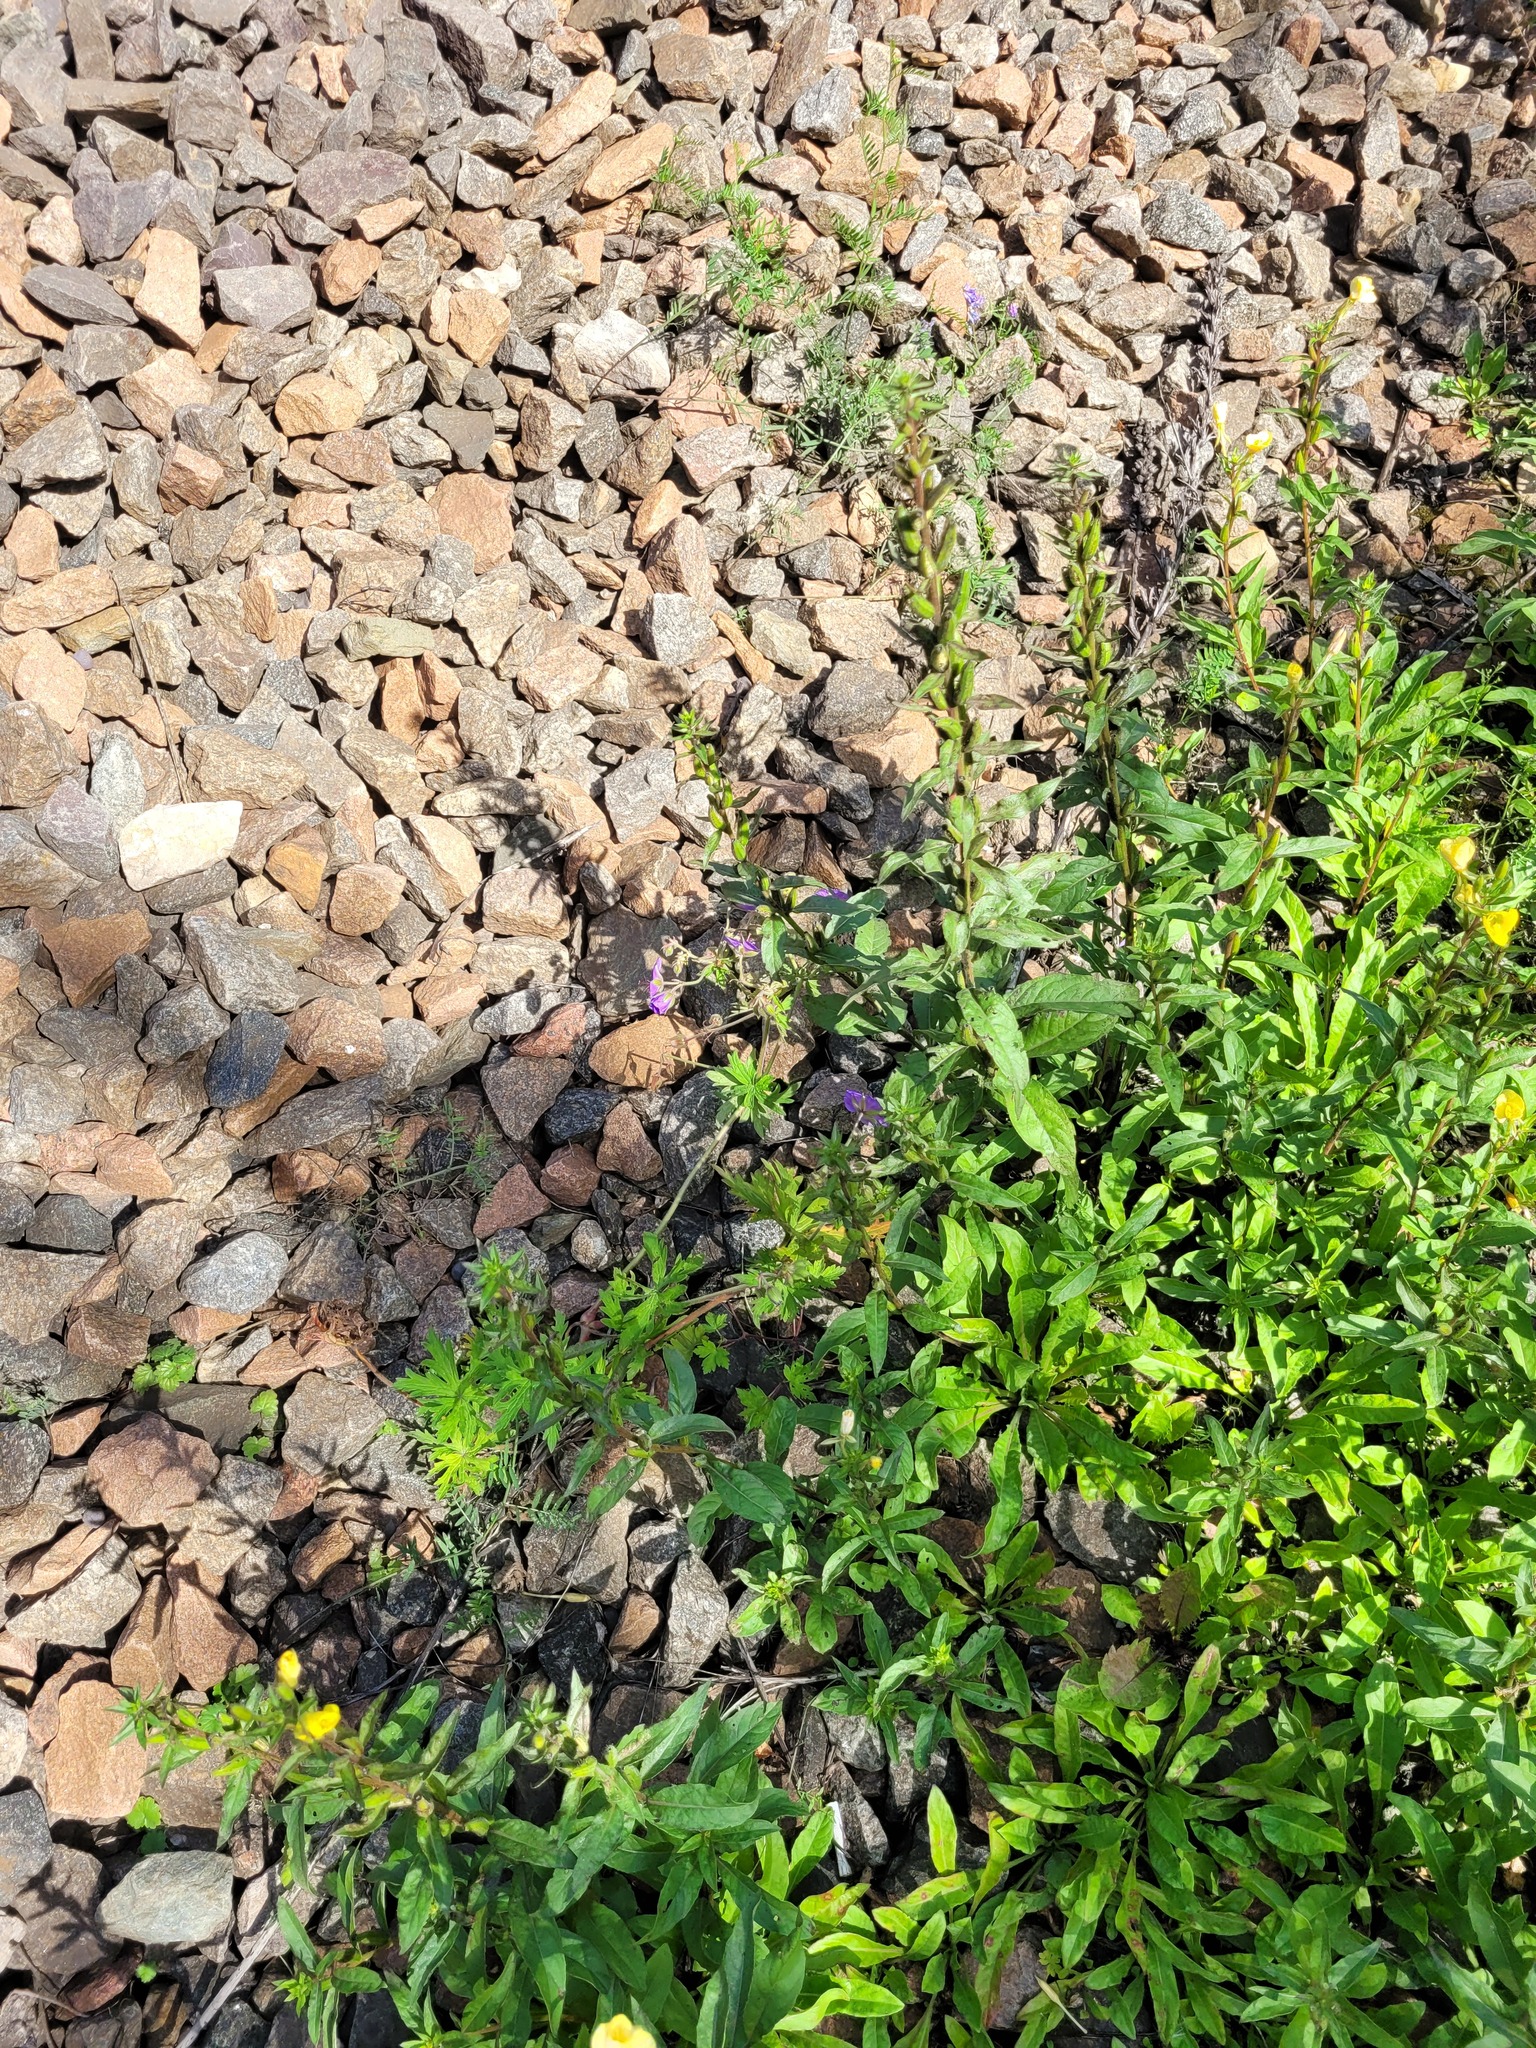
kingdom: Plantae
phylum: Tracheophyta
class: Magnoliopsida
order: Geraniales
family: Geraniaceae
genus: Geranium
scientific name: Geranium pratense
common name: Meadow crane's-bill
